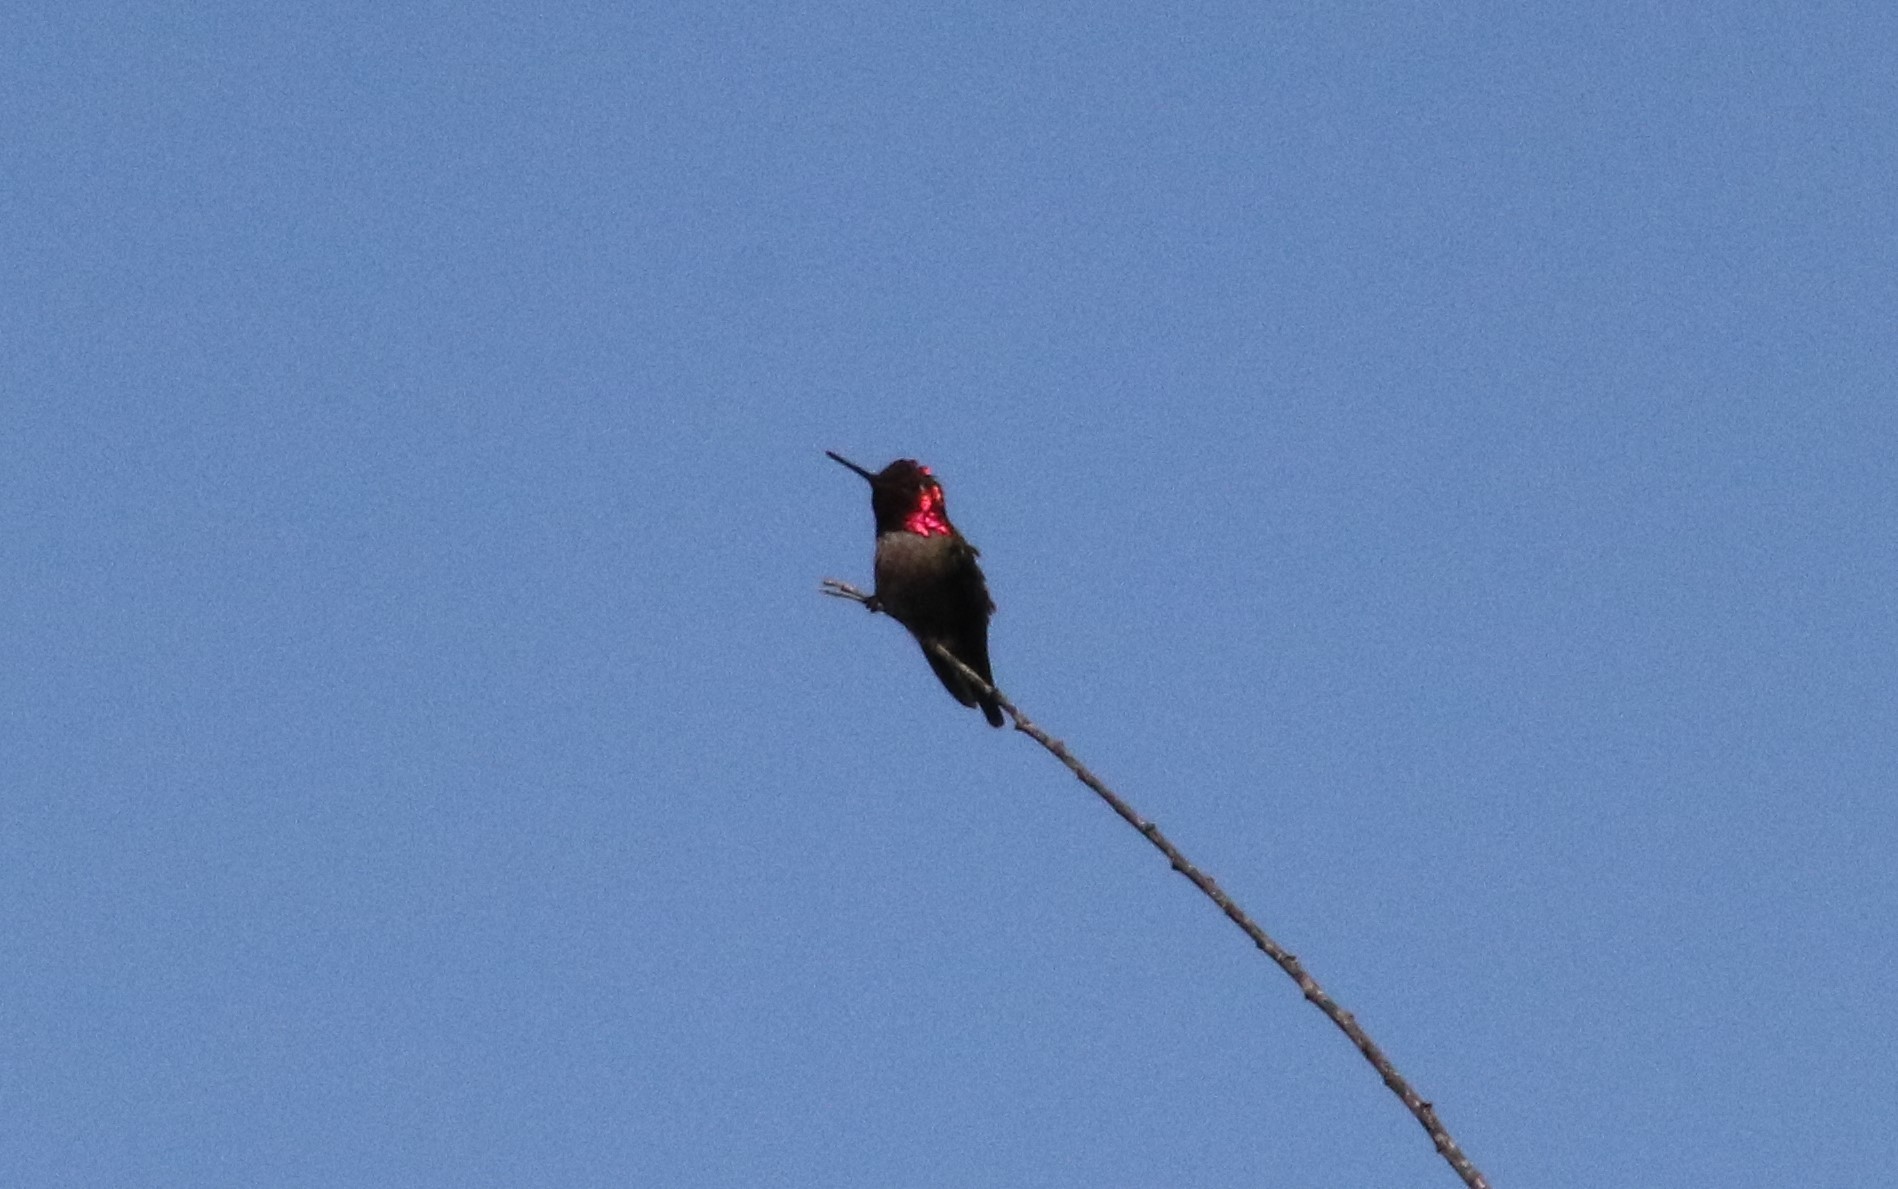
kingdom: Animalia
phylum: Chordata
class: Aves
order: Apodiformes
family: Trochilidae
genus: Calypte
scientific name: Calypte anna
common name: Anna's hummingbird
